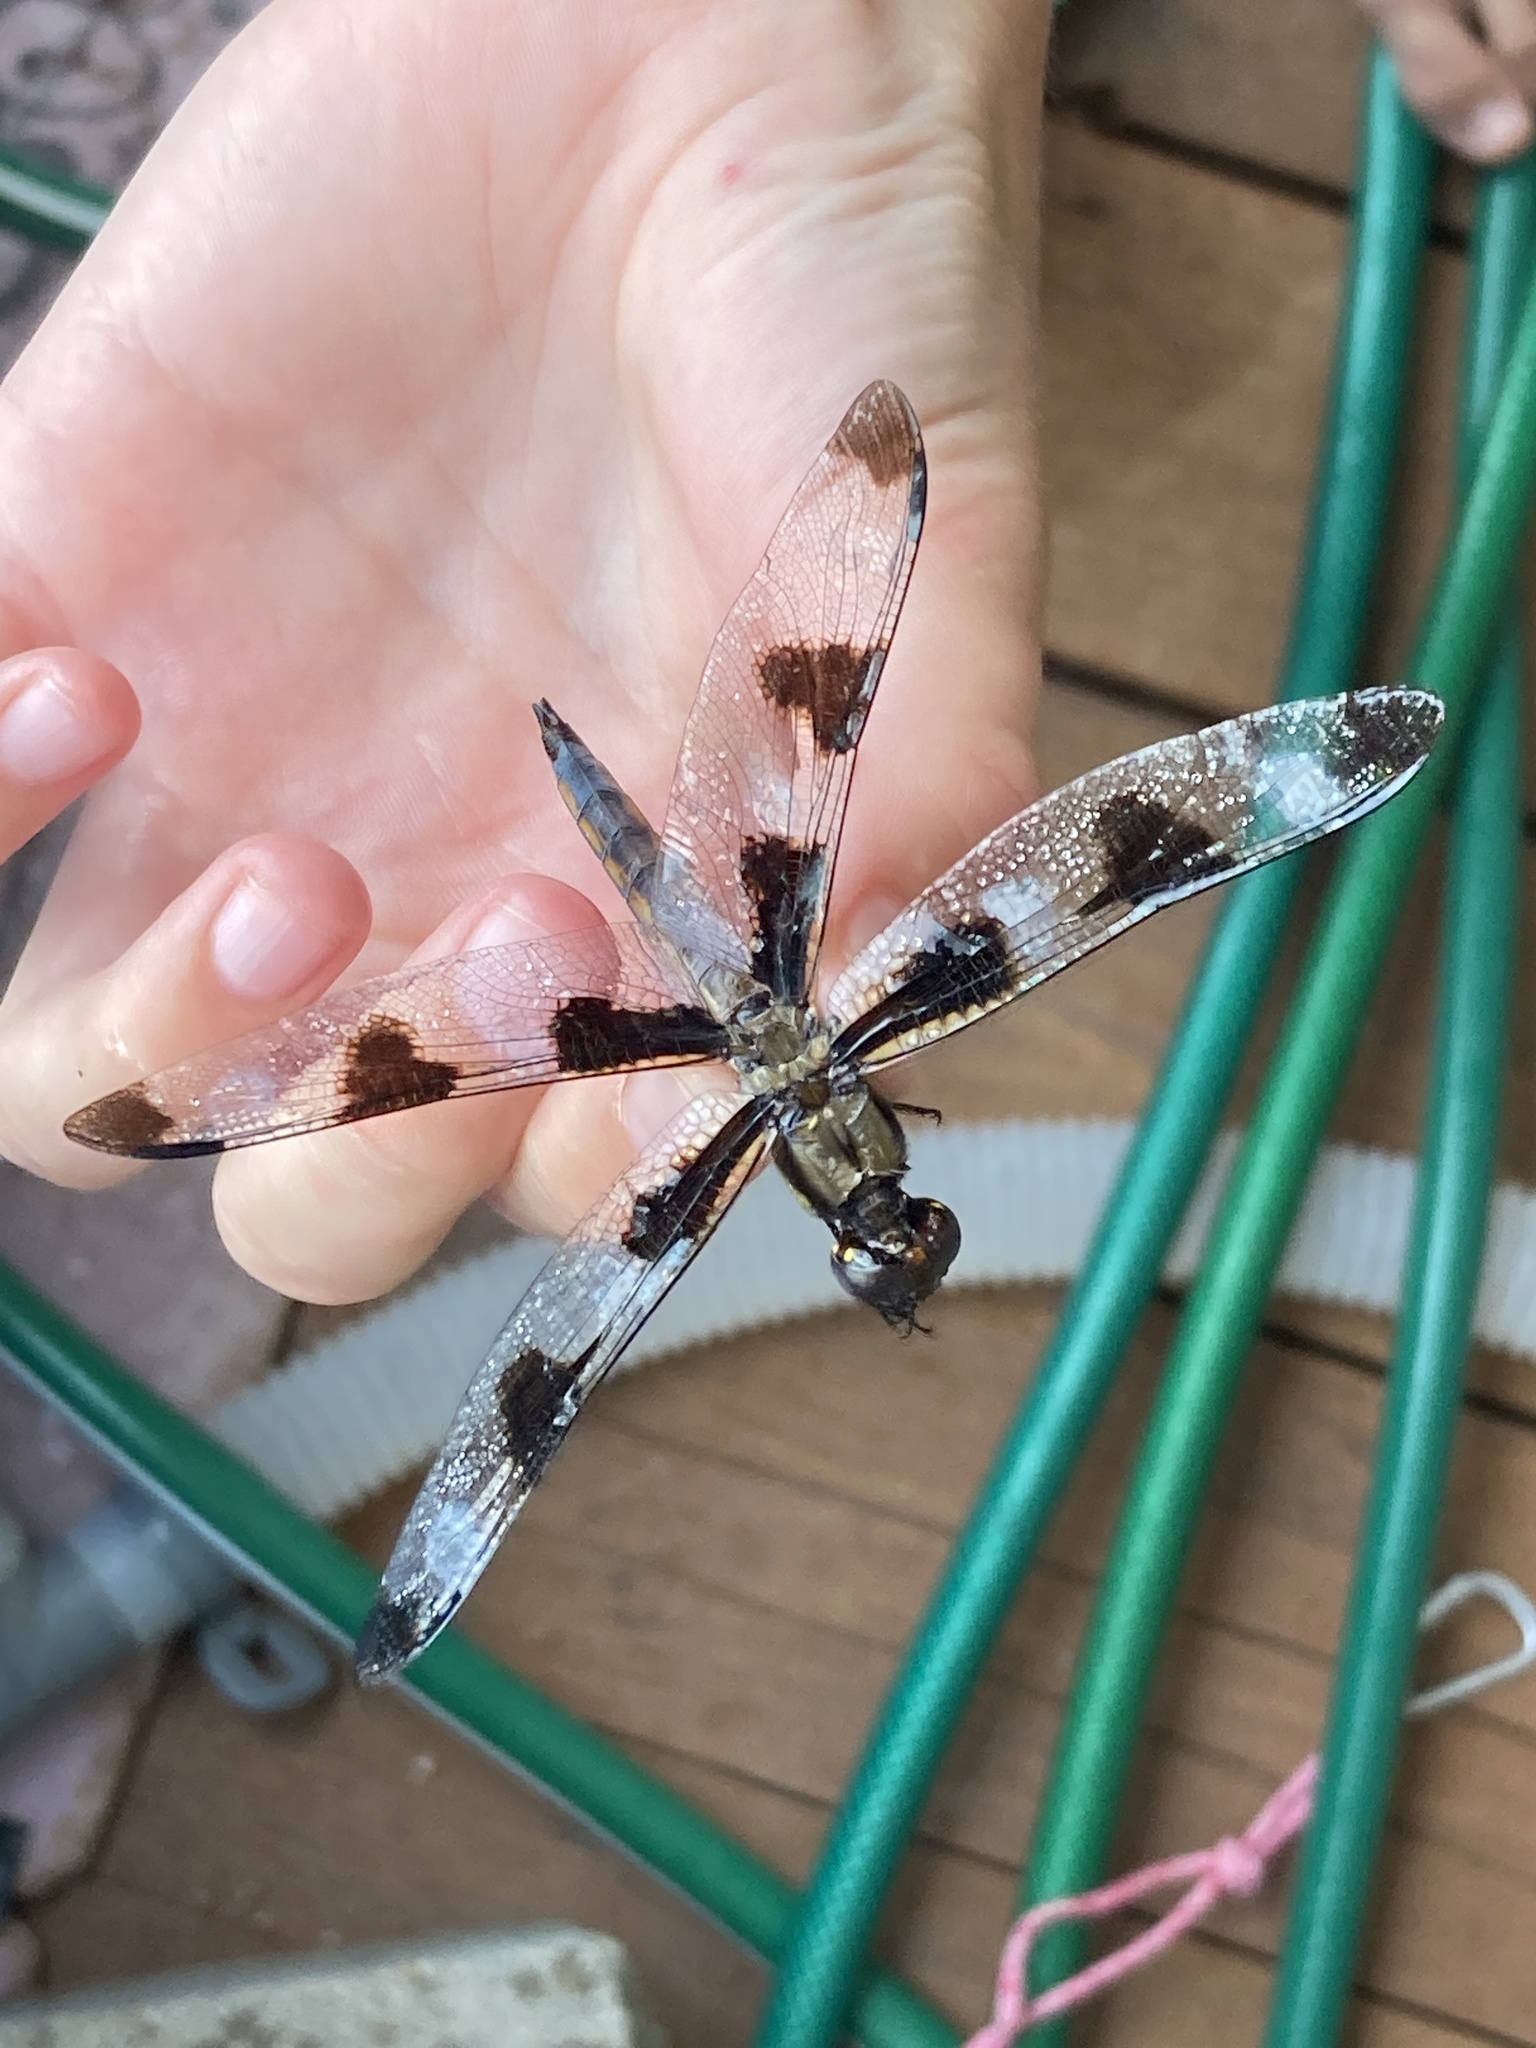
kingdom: Animalia
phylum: Arthropoda
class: Insecta
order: Odonata
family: Libellulidae
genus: Libellula
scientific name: Libellula pulchella
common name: Twelve-spotted skimmer
